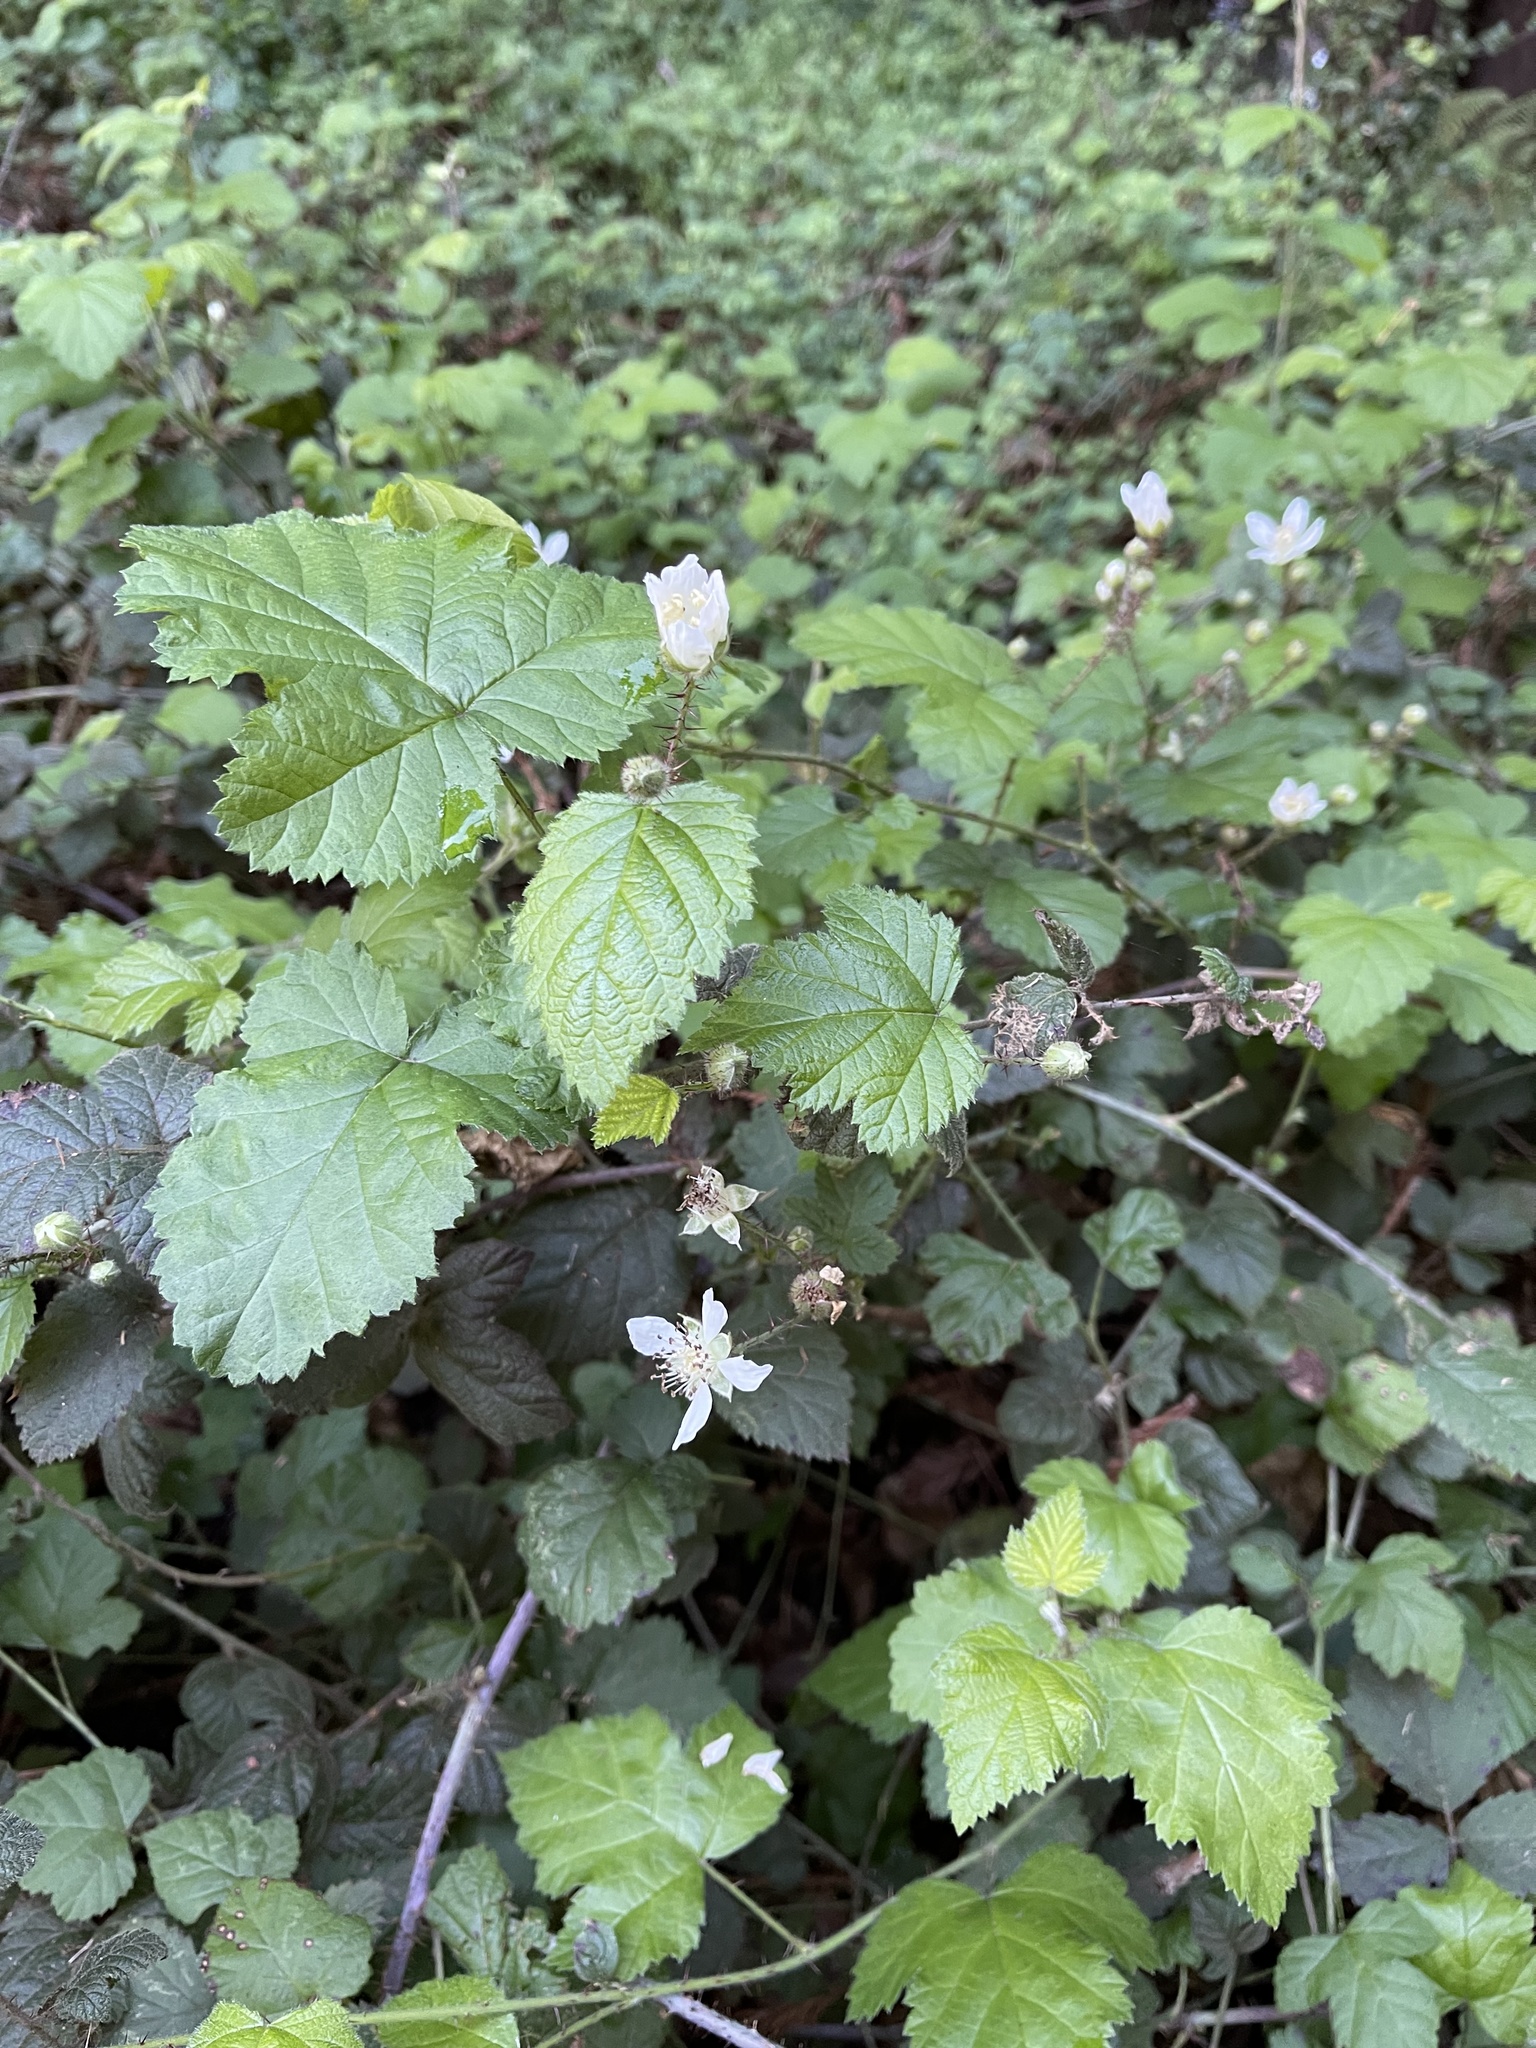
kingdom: Plantae
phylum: Tracheophyta
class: Magnoliopsida
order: Rosales
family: Rosaceae
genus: Rubus
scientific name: Rubus ursinus
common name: Pacific blackberry
